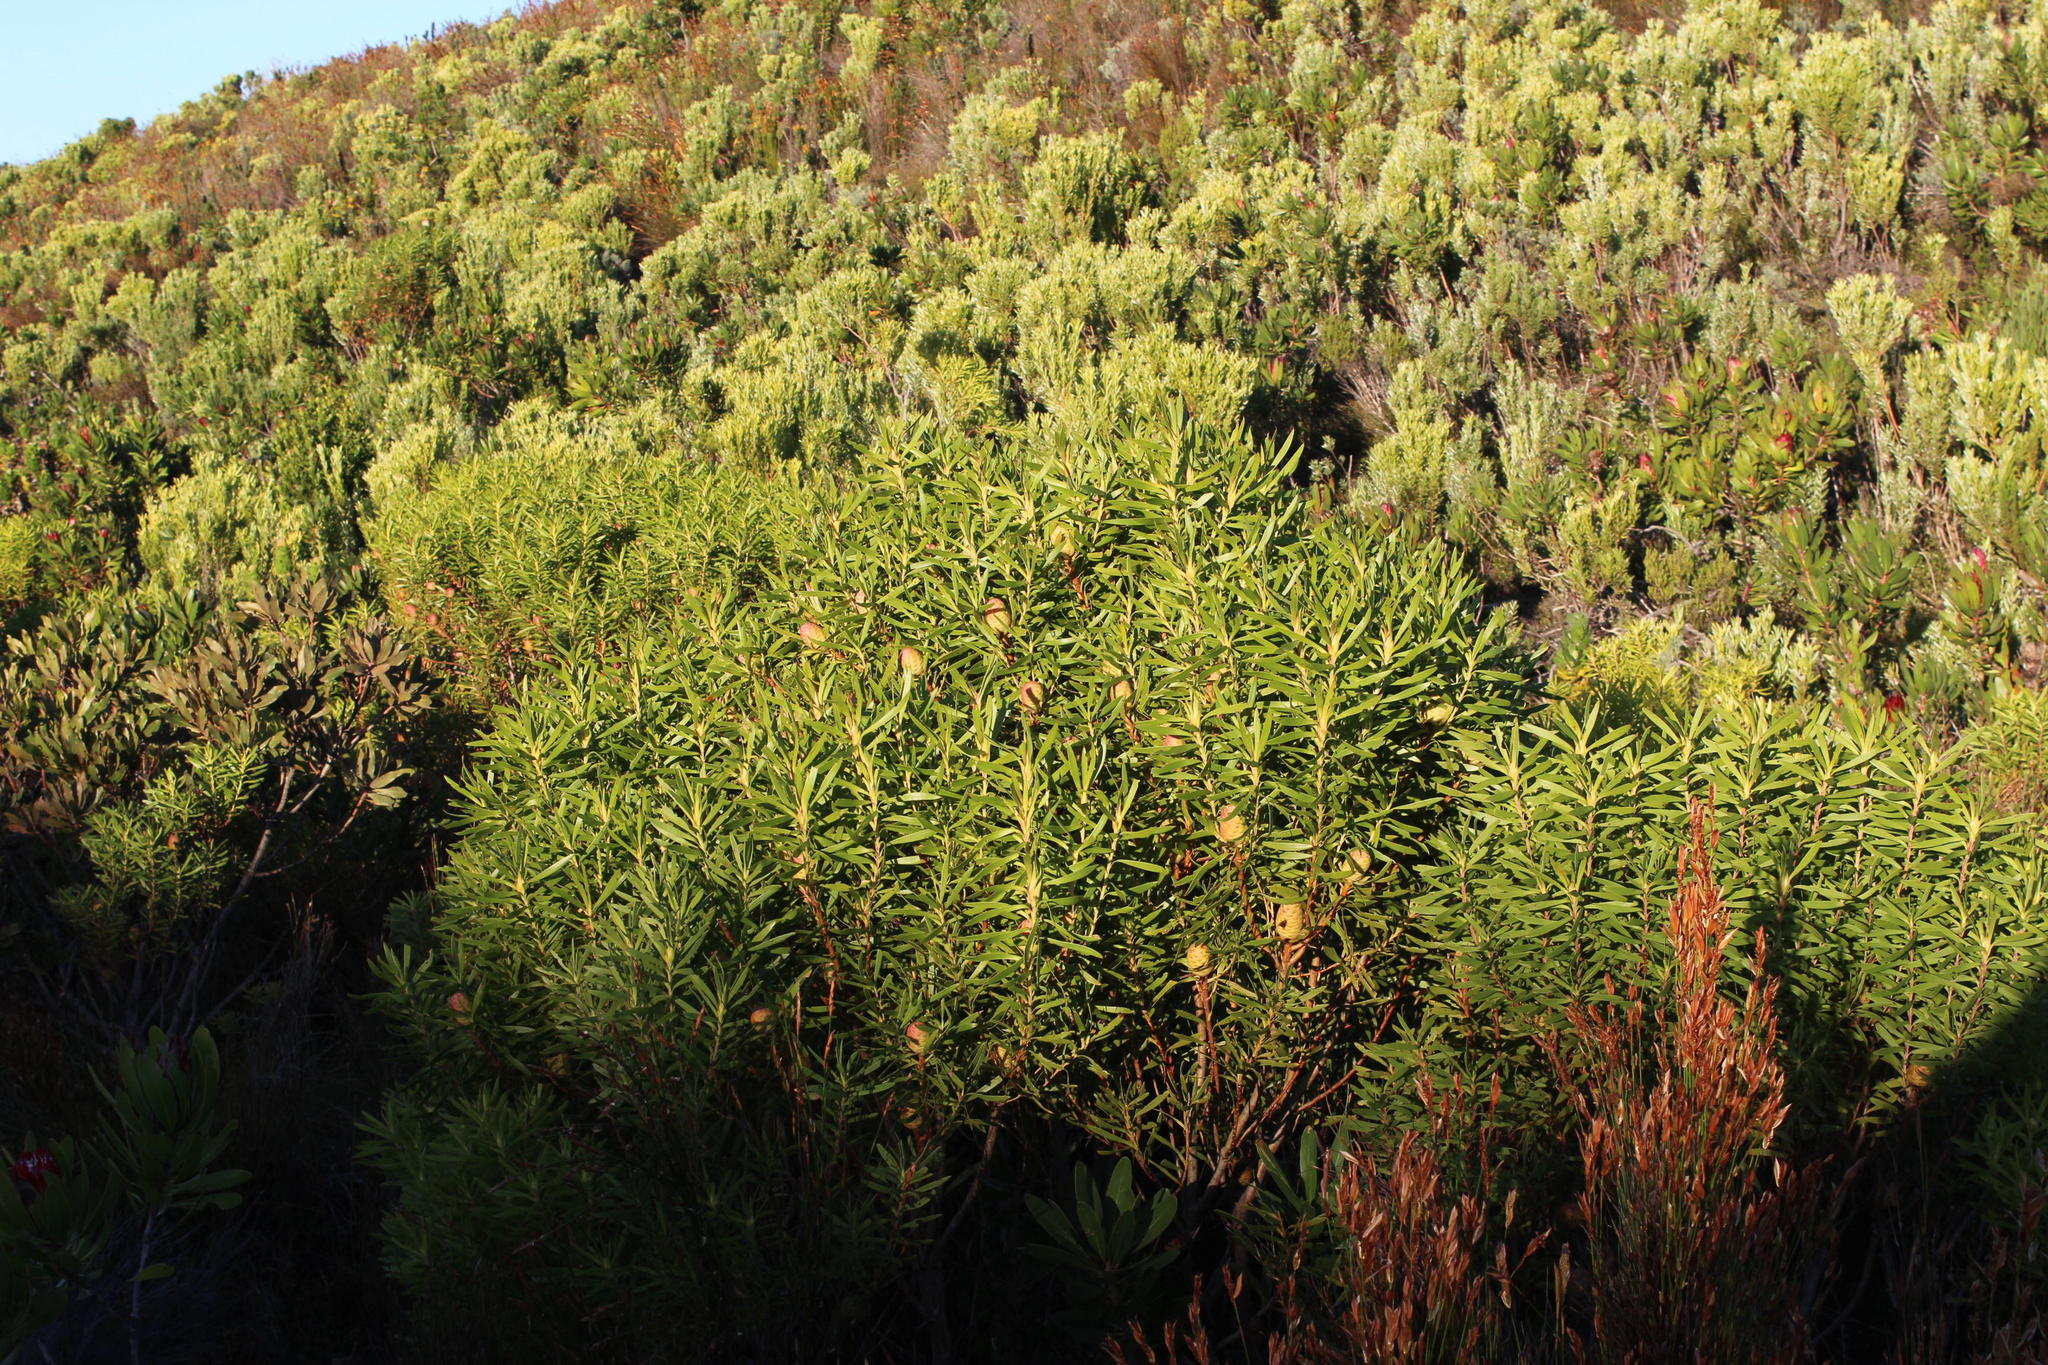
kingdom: Plantae
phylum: Tracheophyta
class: Magnoliopsida
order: Proteales
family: Proteaceae
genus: Leucadendron
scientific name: Leucadendron coniferum
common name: Dune conebush
